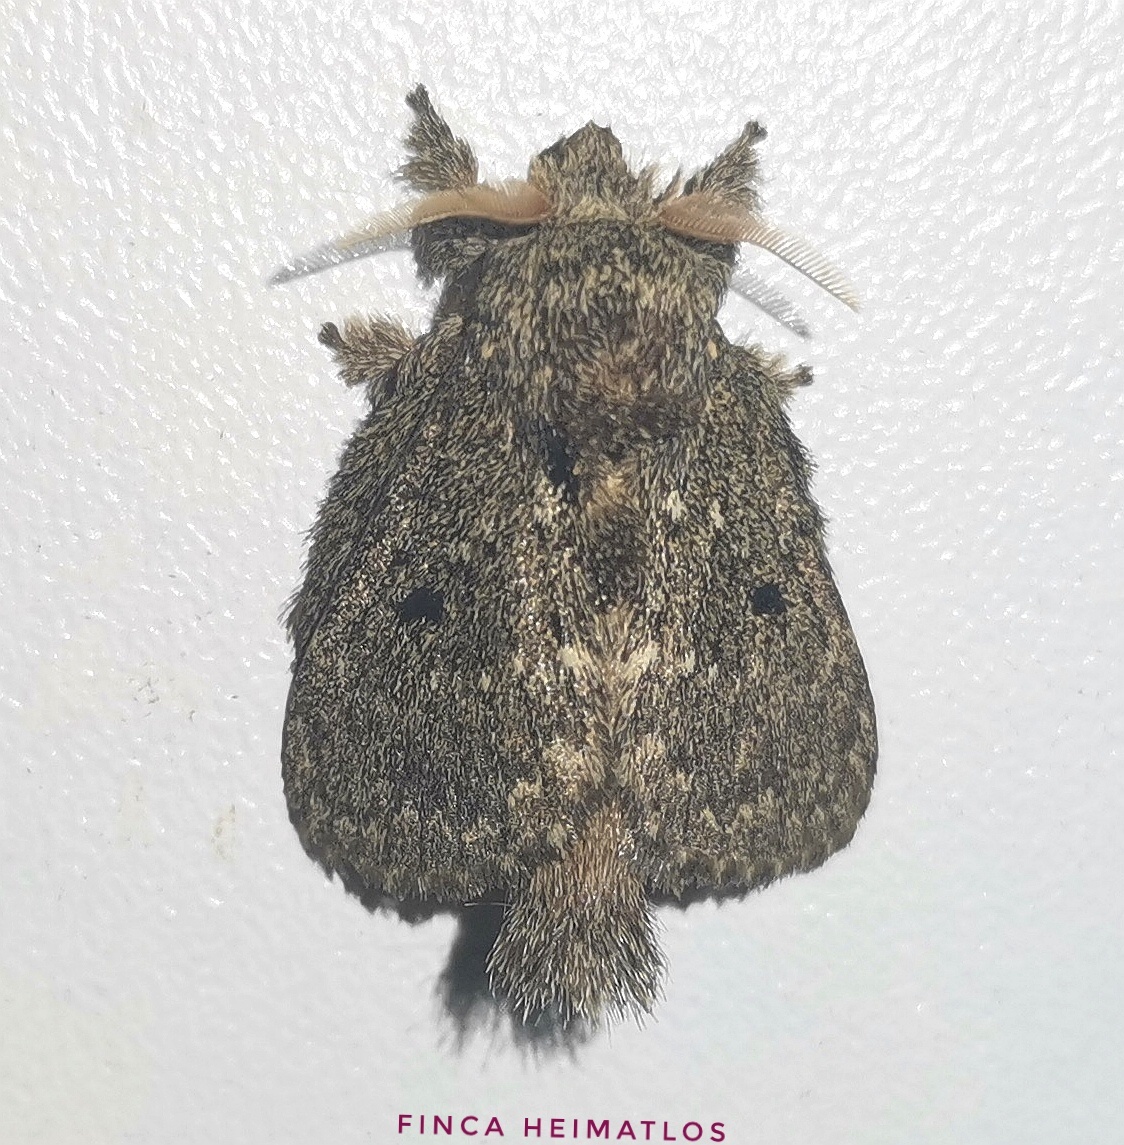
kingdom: Animalia
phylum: Arthropoda
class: Insecta
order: Lepidoptera
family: Lasiocampidae
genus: Euglyphis
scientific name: Euglyphis amathuria
